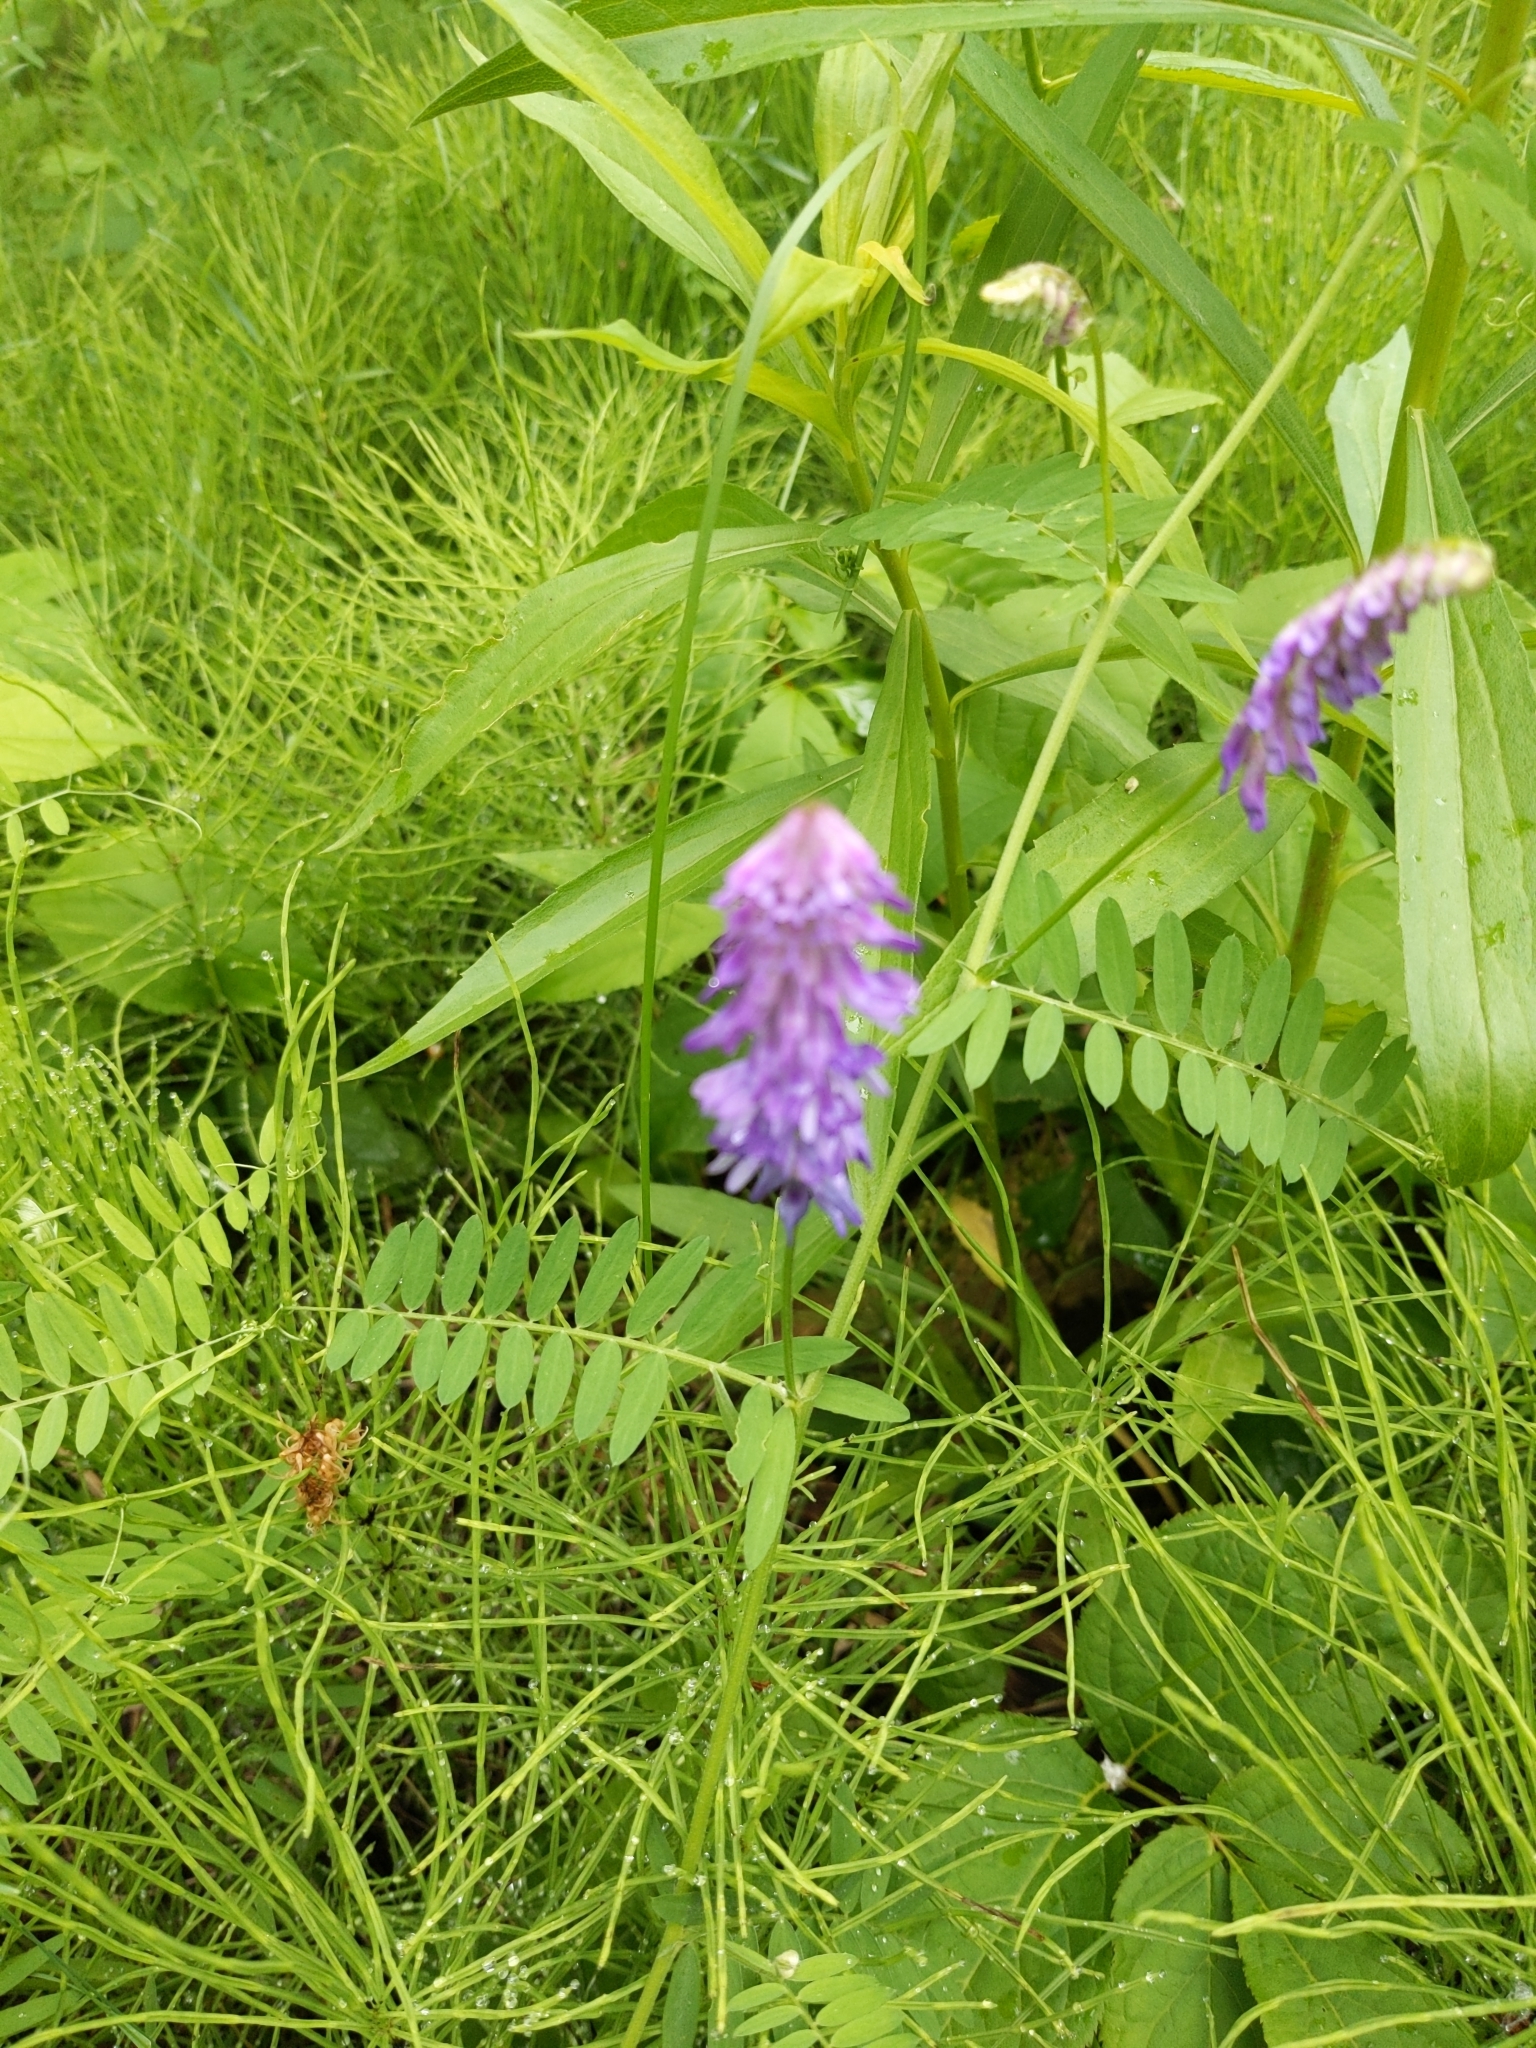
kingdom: Plantae
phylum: Tracheophyta
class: Magnoliopsida
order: Fabales
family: Fabaceae
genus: Vicia
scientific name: Vicia cracca
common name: Bird vetch
